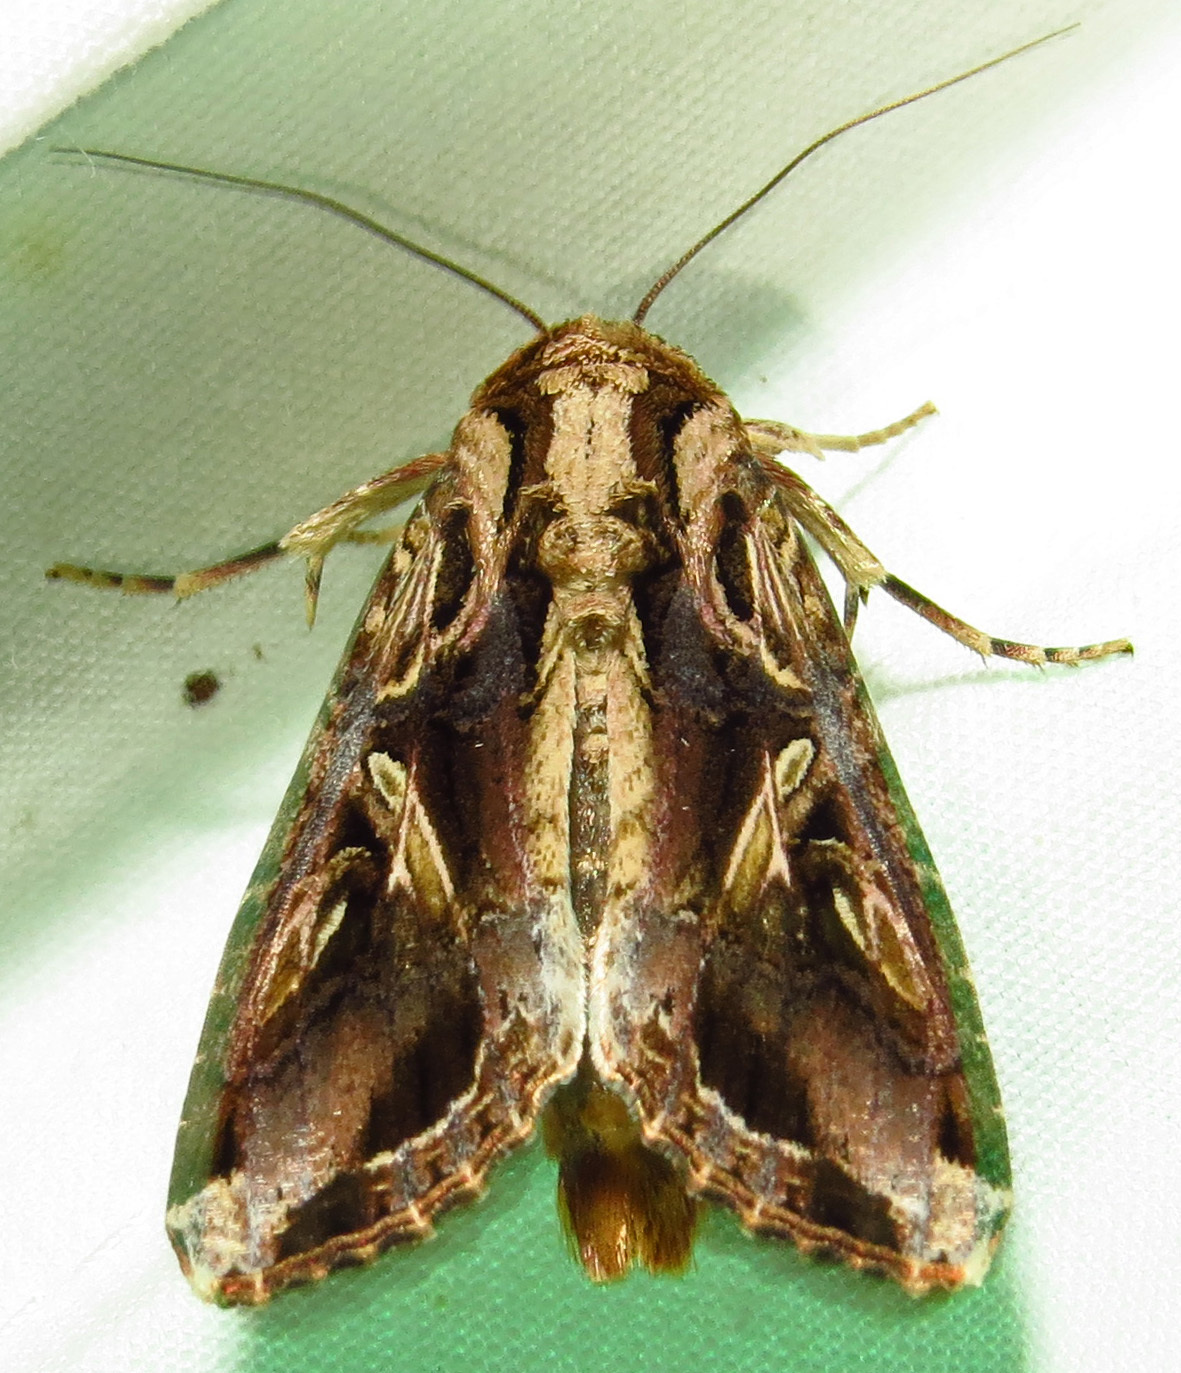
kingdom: Animalia
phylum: Arthropoda
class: Insecta
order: Lepidoptera
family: Noctuidae
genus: Spodoptera
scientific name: Spodoptera dolichos
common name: Sweetpotato armyworm
